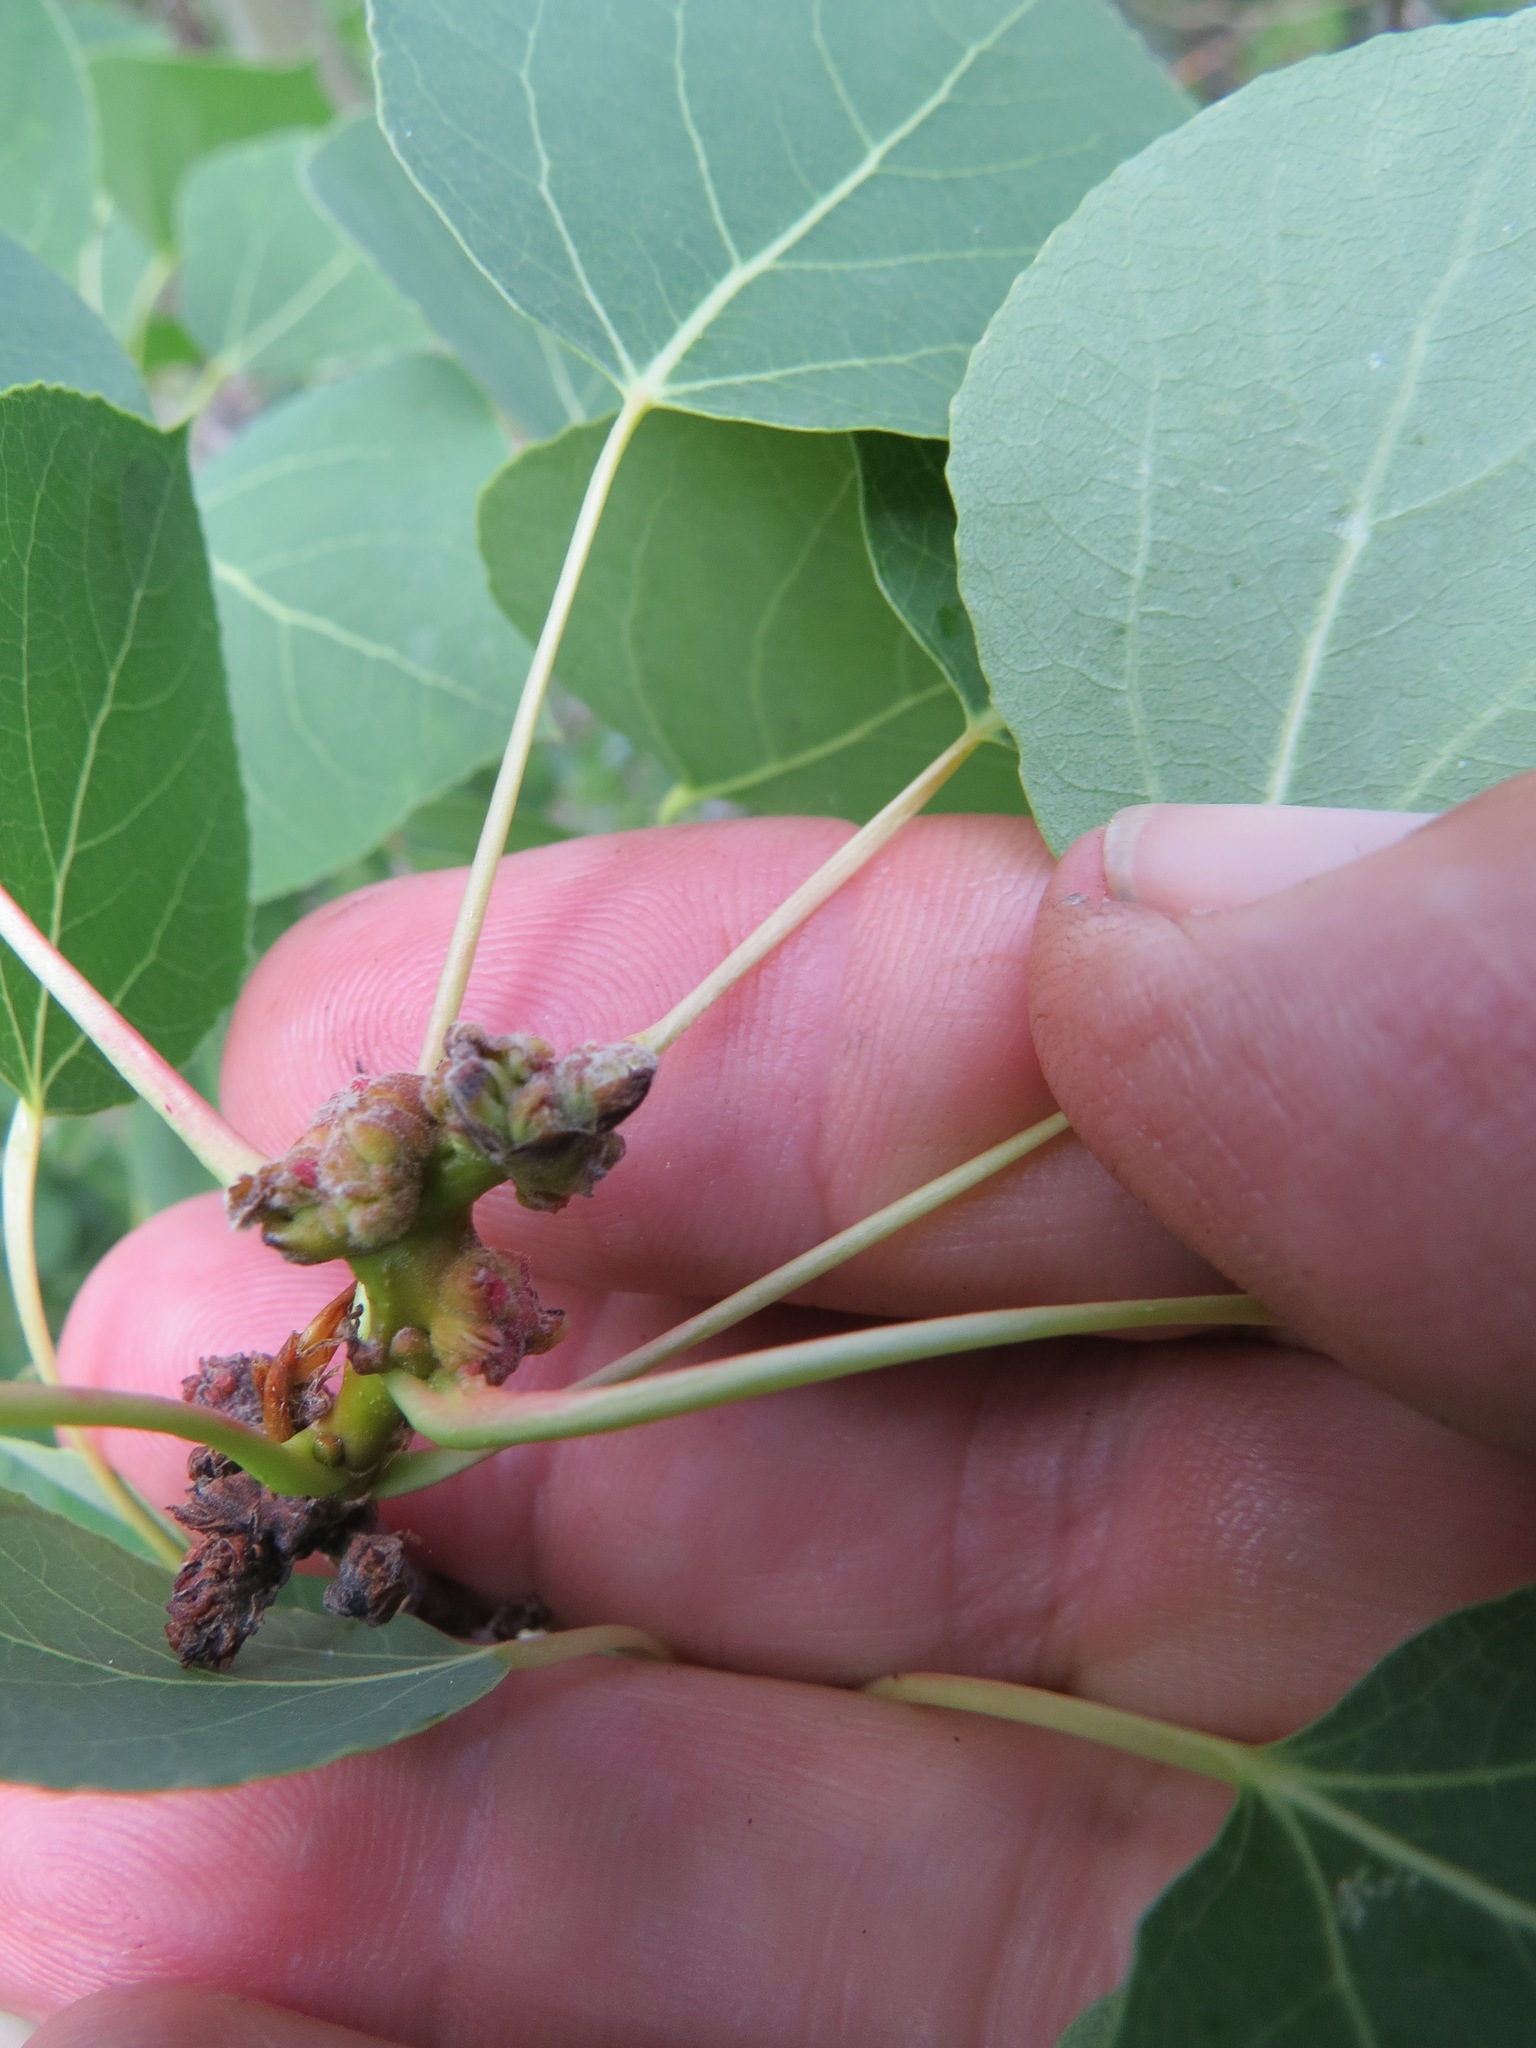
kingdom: Animalia
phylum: Arthropoda
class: Arachnida
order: Trombidiformes
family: Eriophyidae
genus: Aceria
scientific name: Aceria
